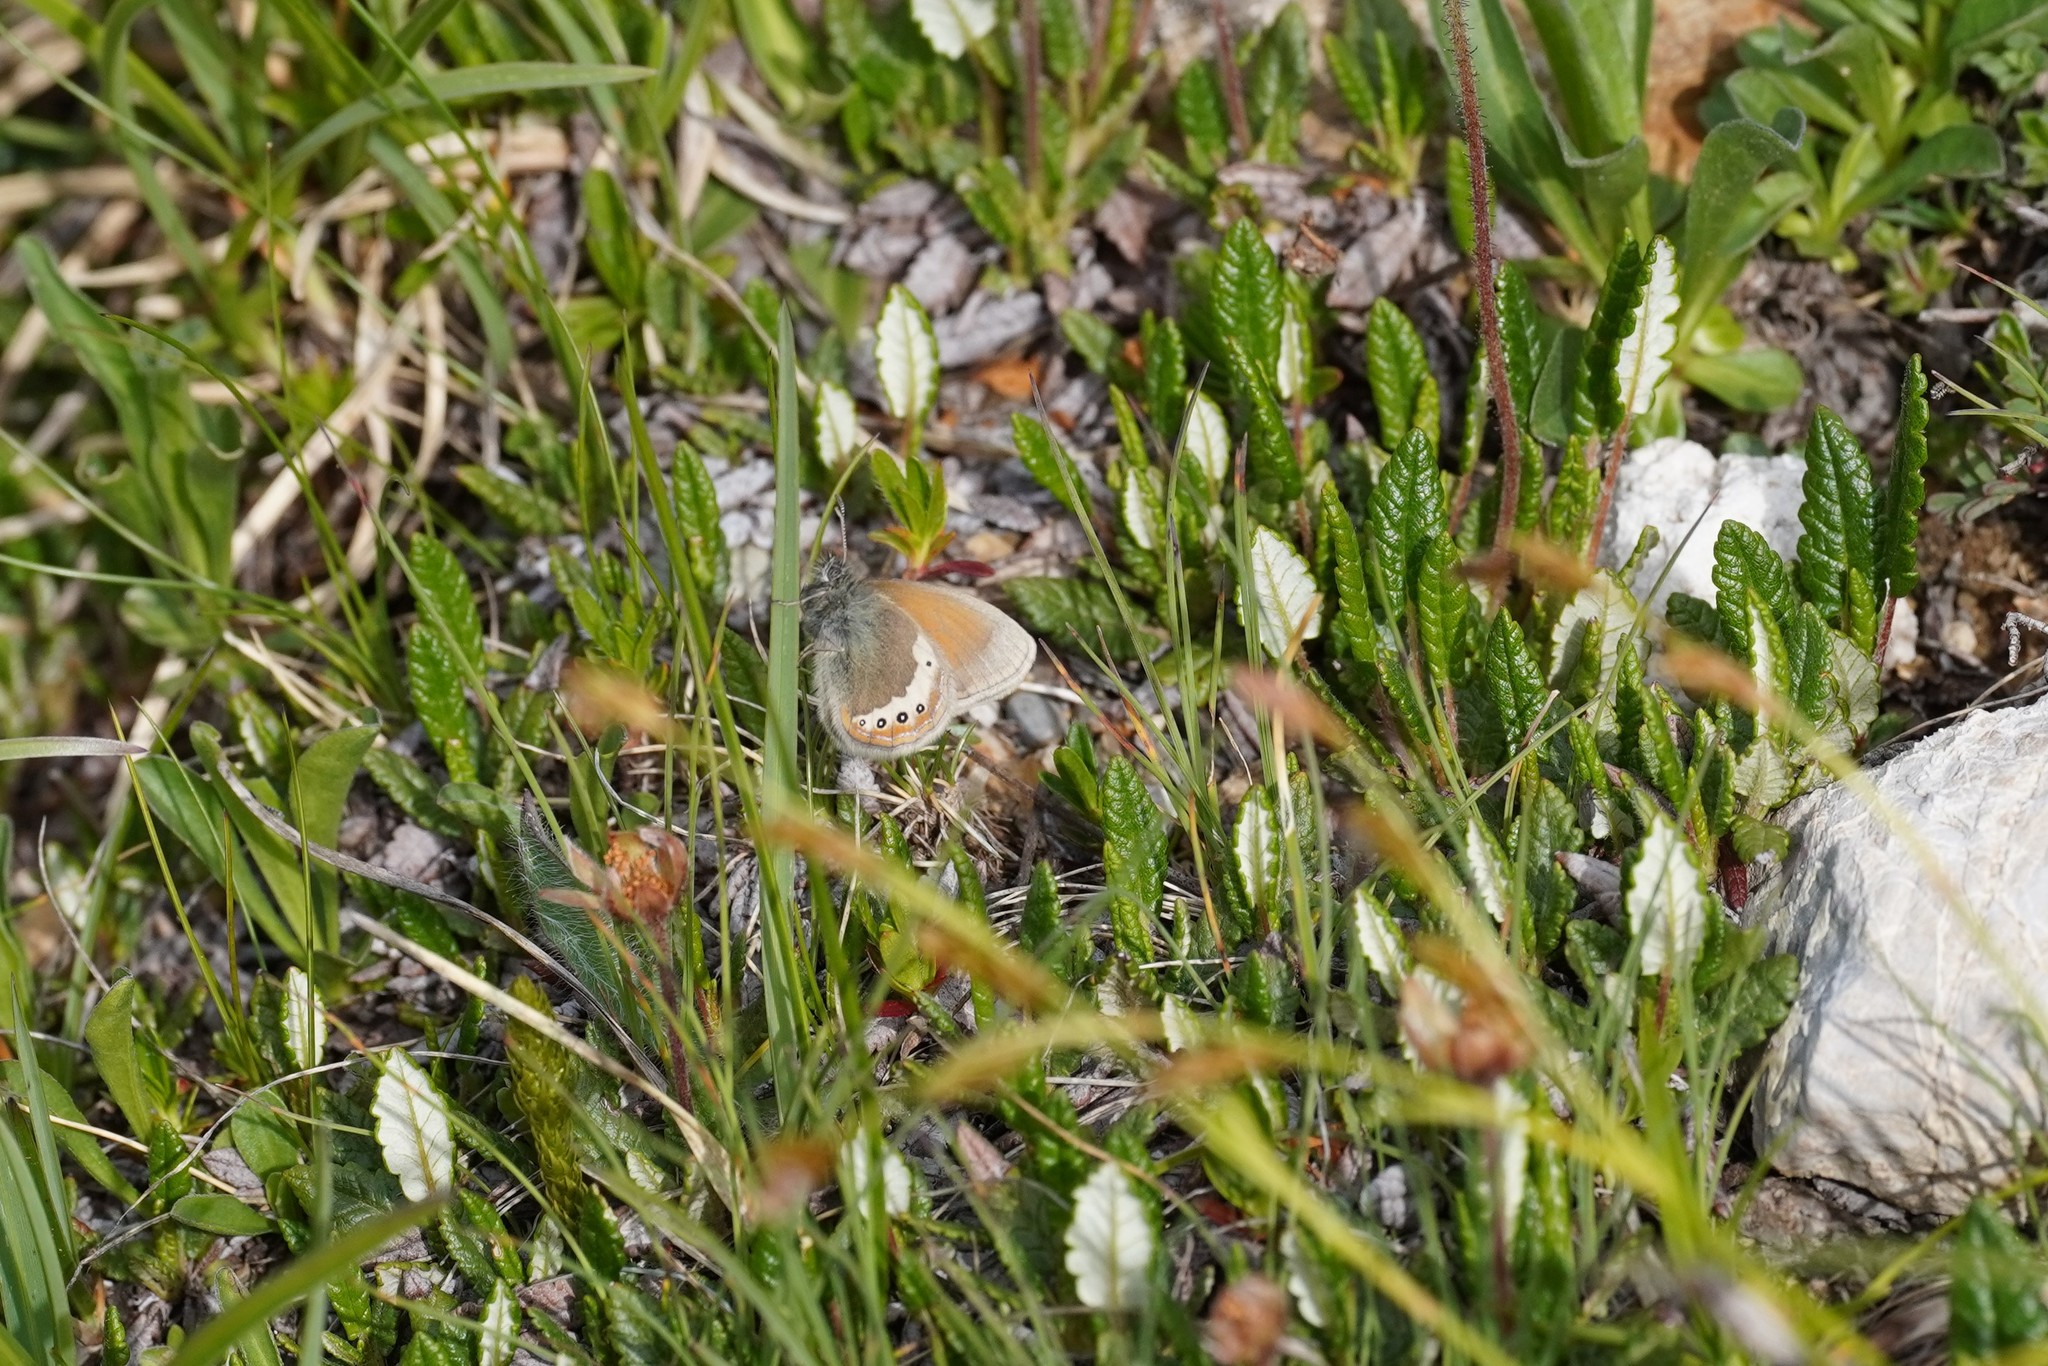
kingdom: Animalia
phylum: Arthropoda
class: Insecta
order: Lepidoptera
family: Nymphalidae
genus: Coenonympha
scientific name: Coenonympha
